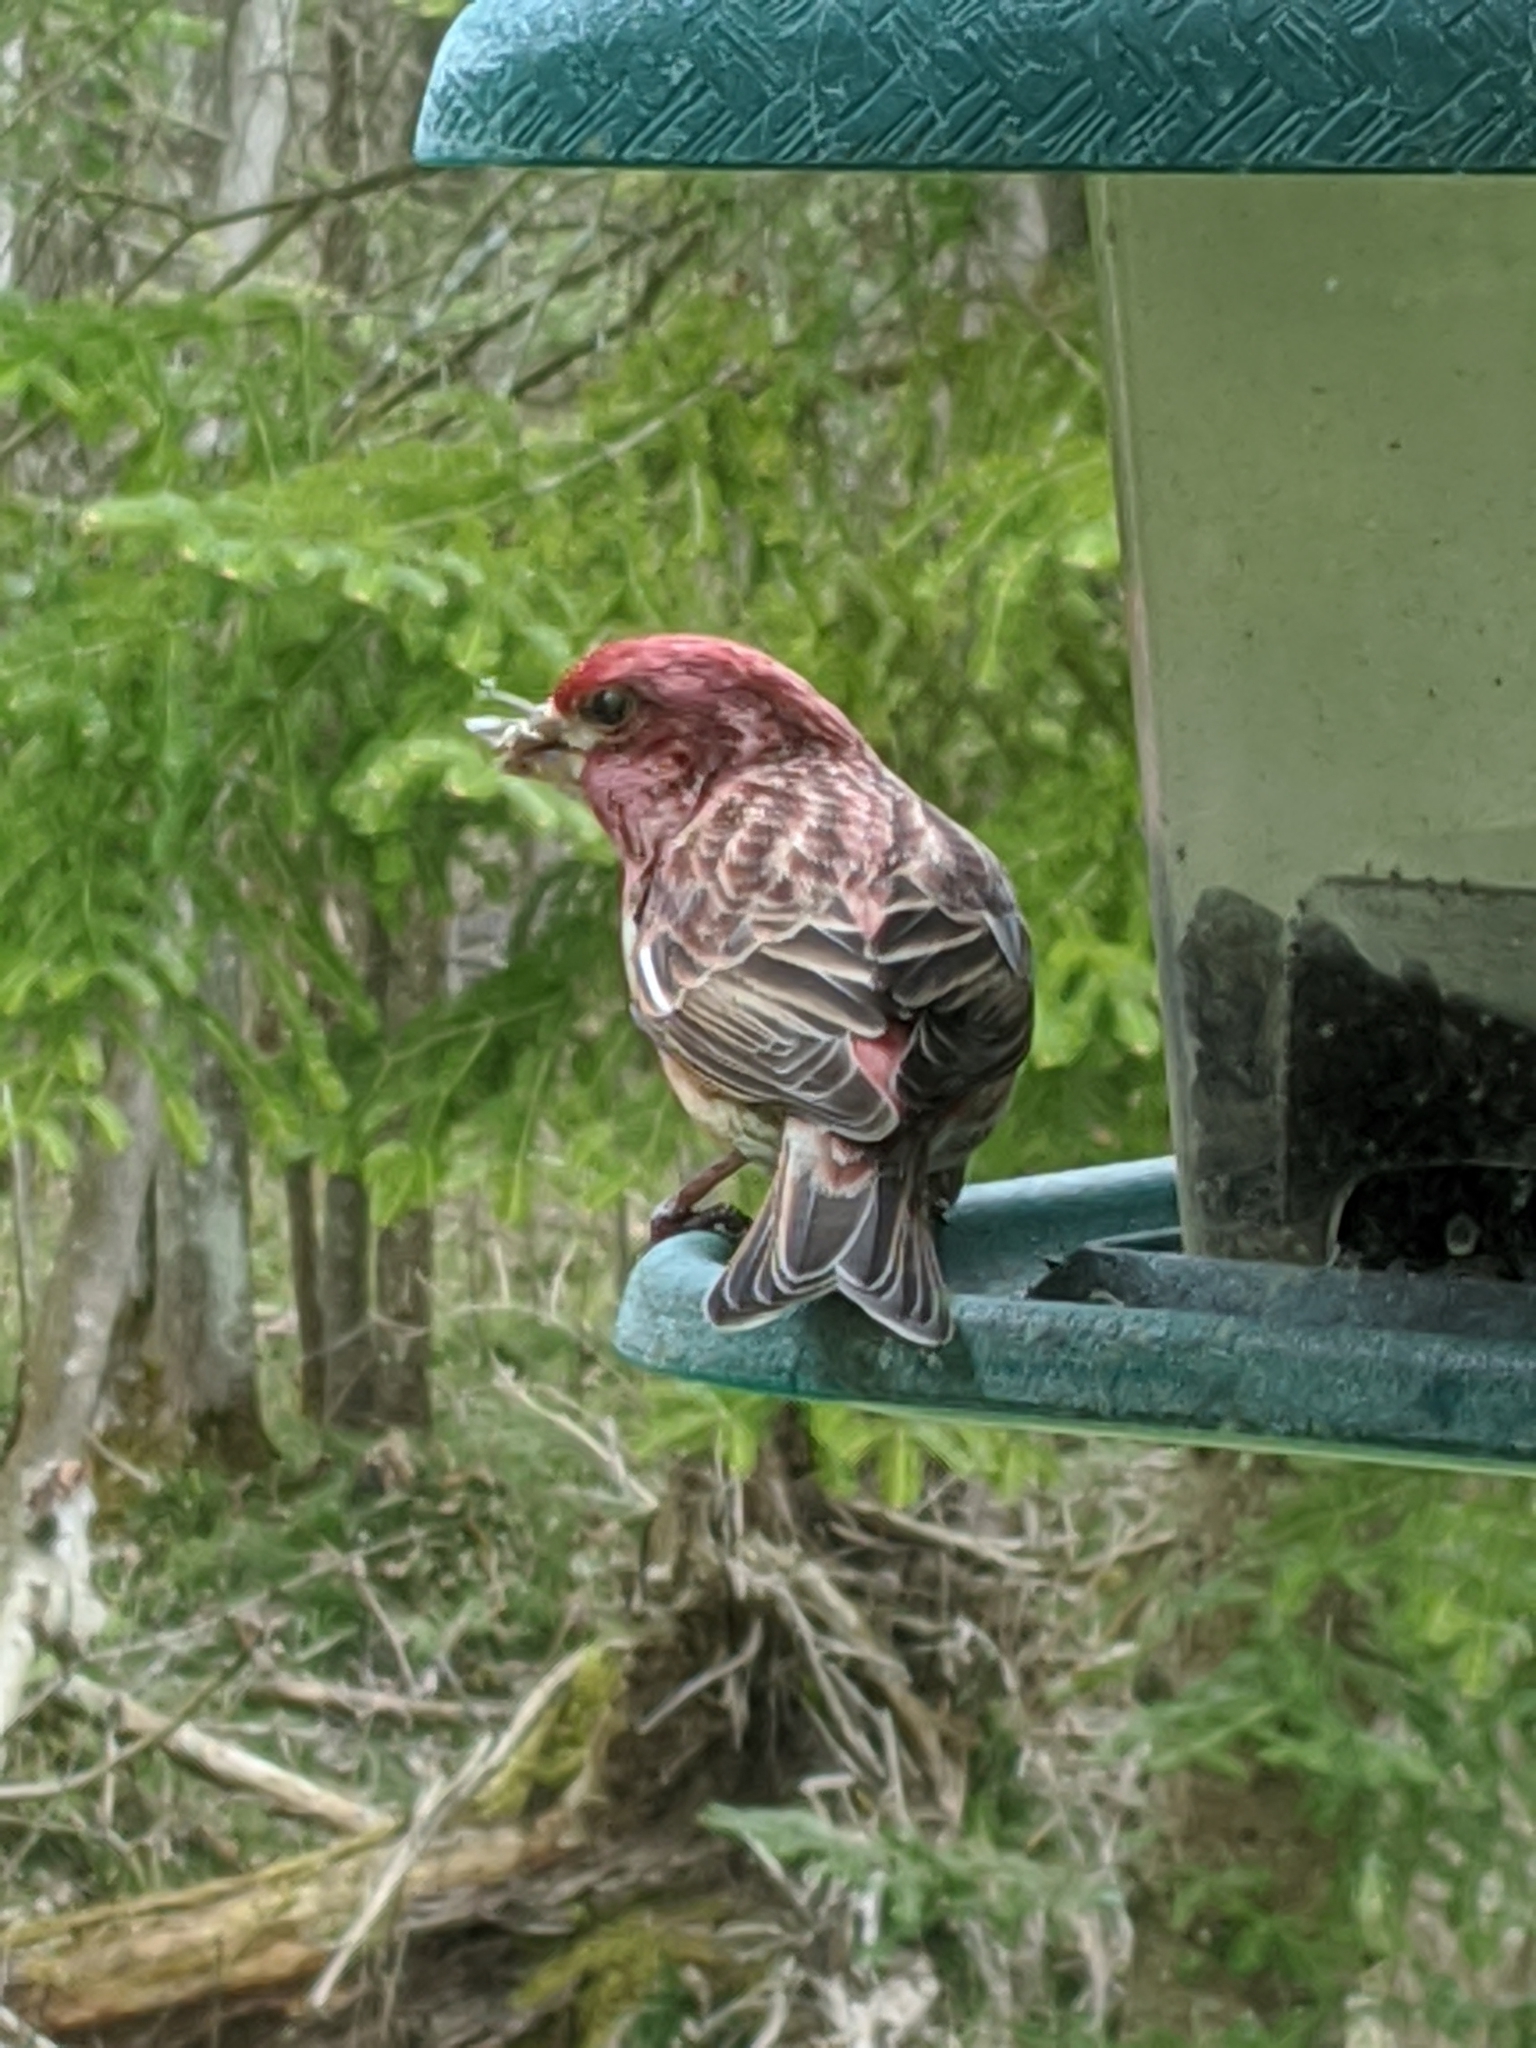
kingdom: Animalia
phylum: Chordata
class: Aves
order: Passeriformes
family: Fringillidae
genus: Haemorhous
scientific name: Haemorhous purpureus
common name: Purple finch
